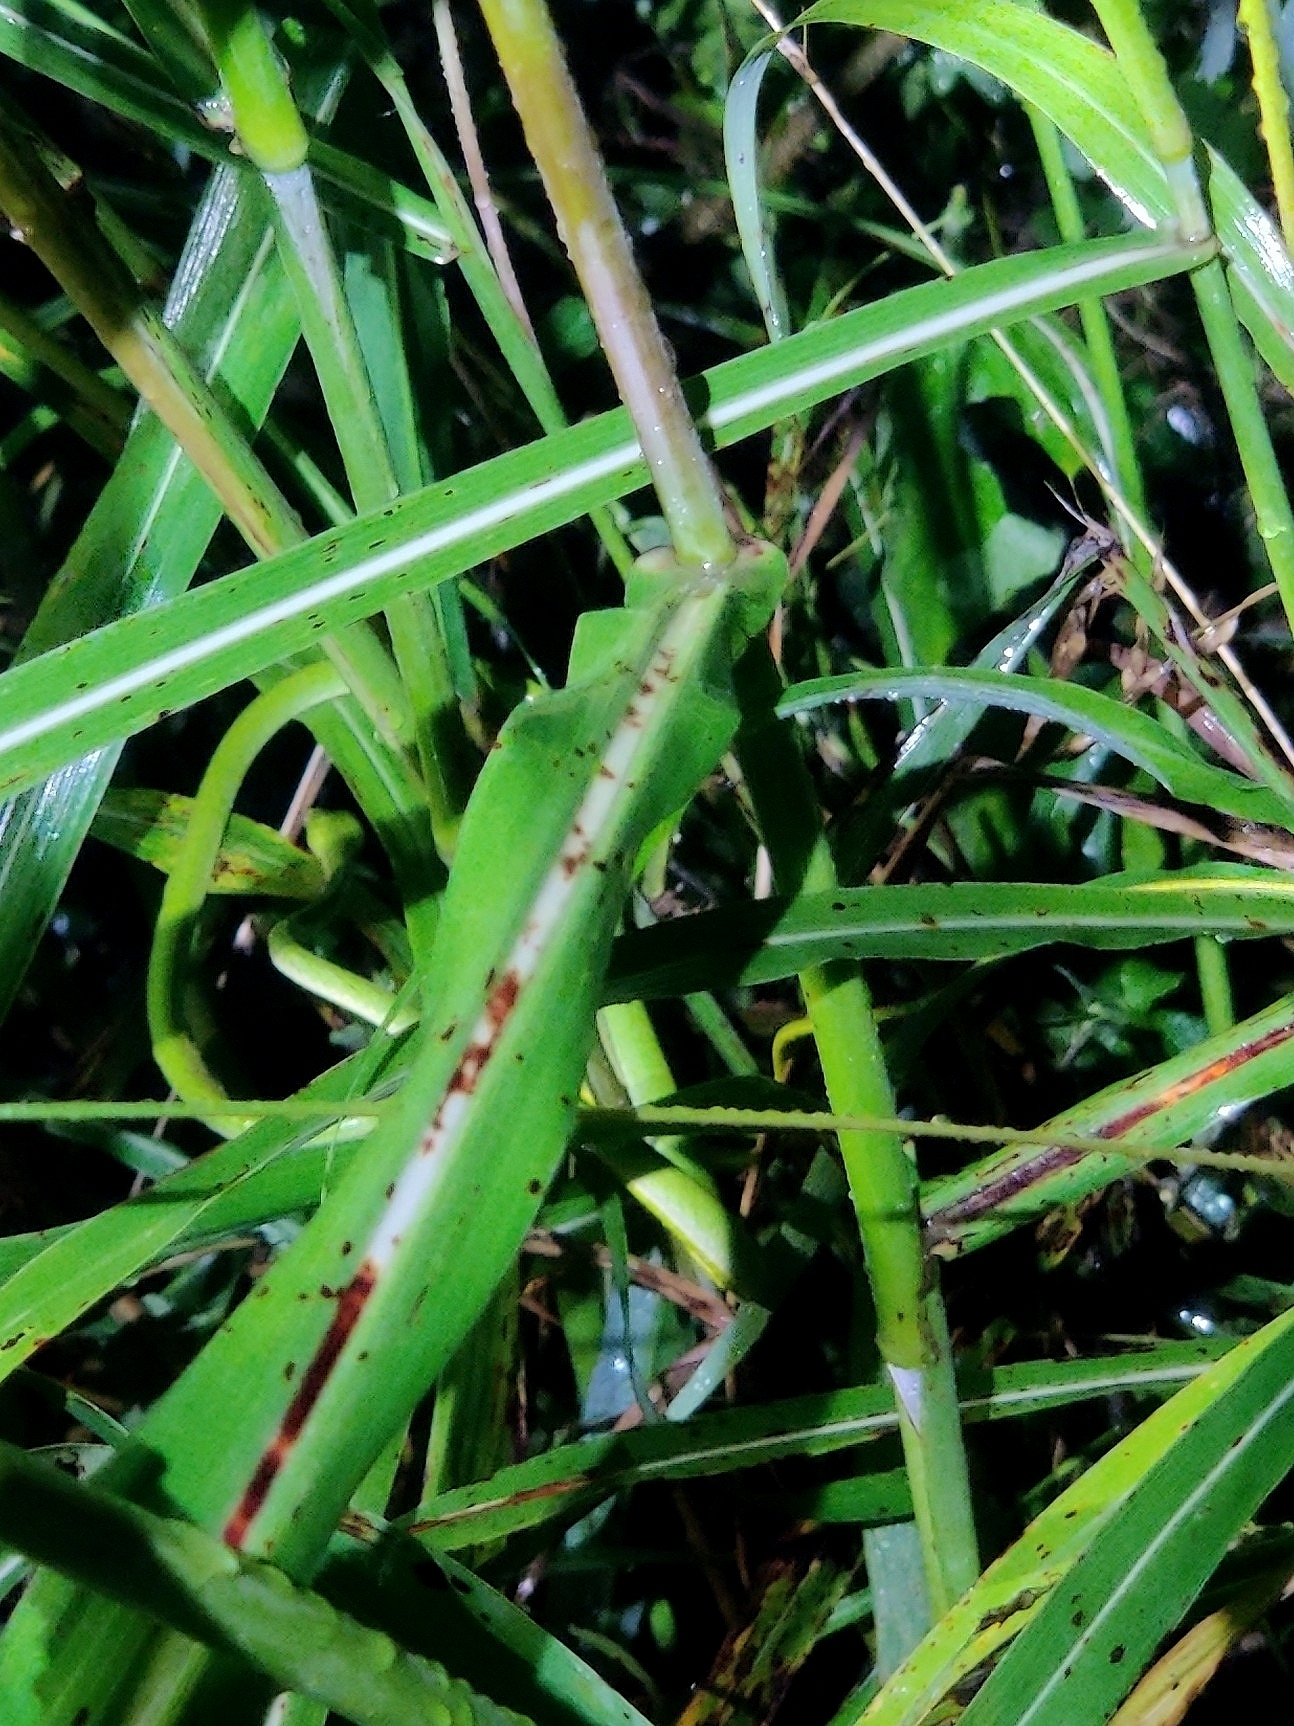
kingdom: Animalia
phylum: Chordata
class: Squamata
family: Colubridae
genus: Ahaetulla
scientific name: Ahaetulla oxyrhyncha
